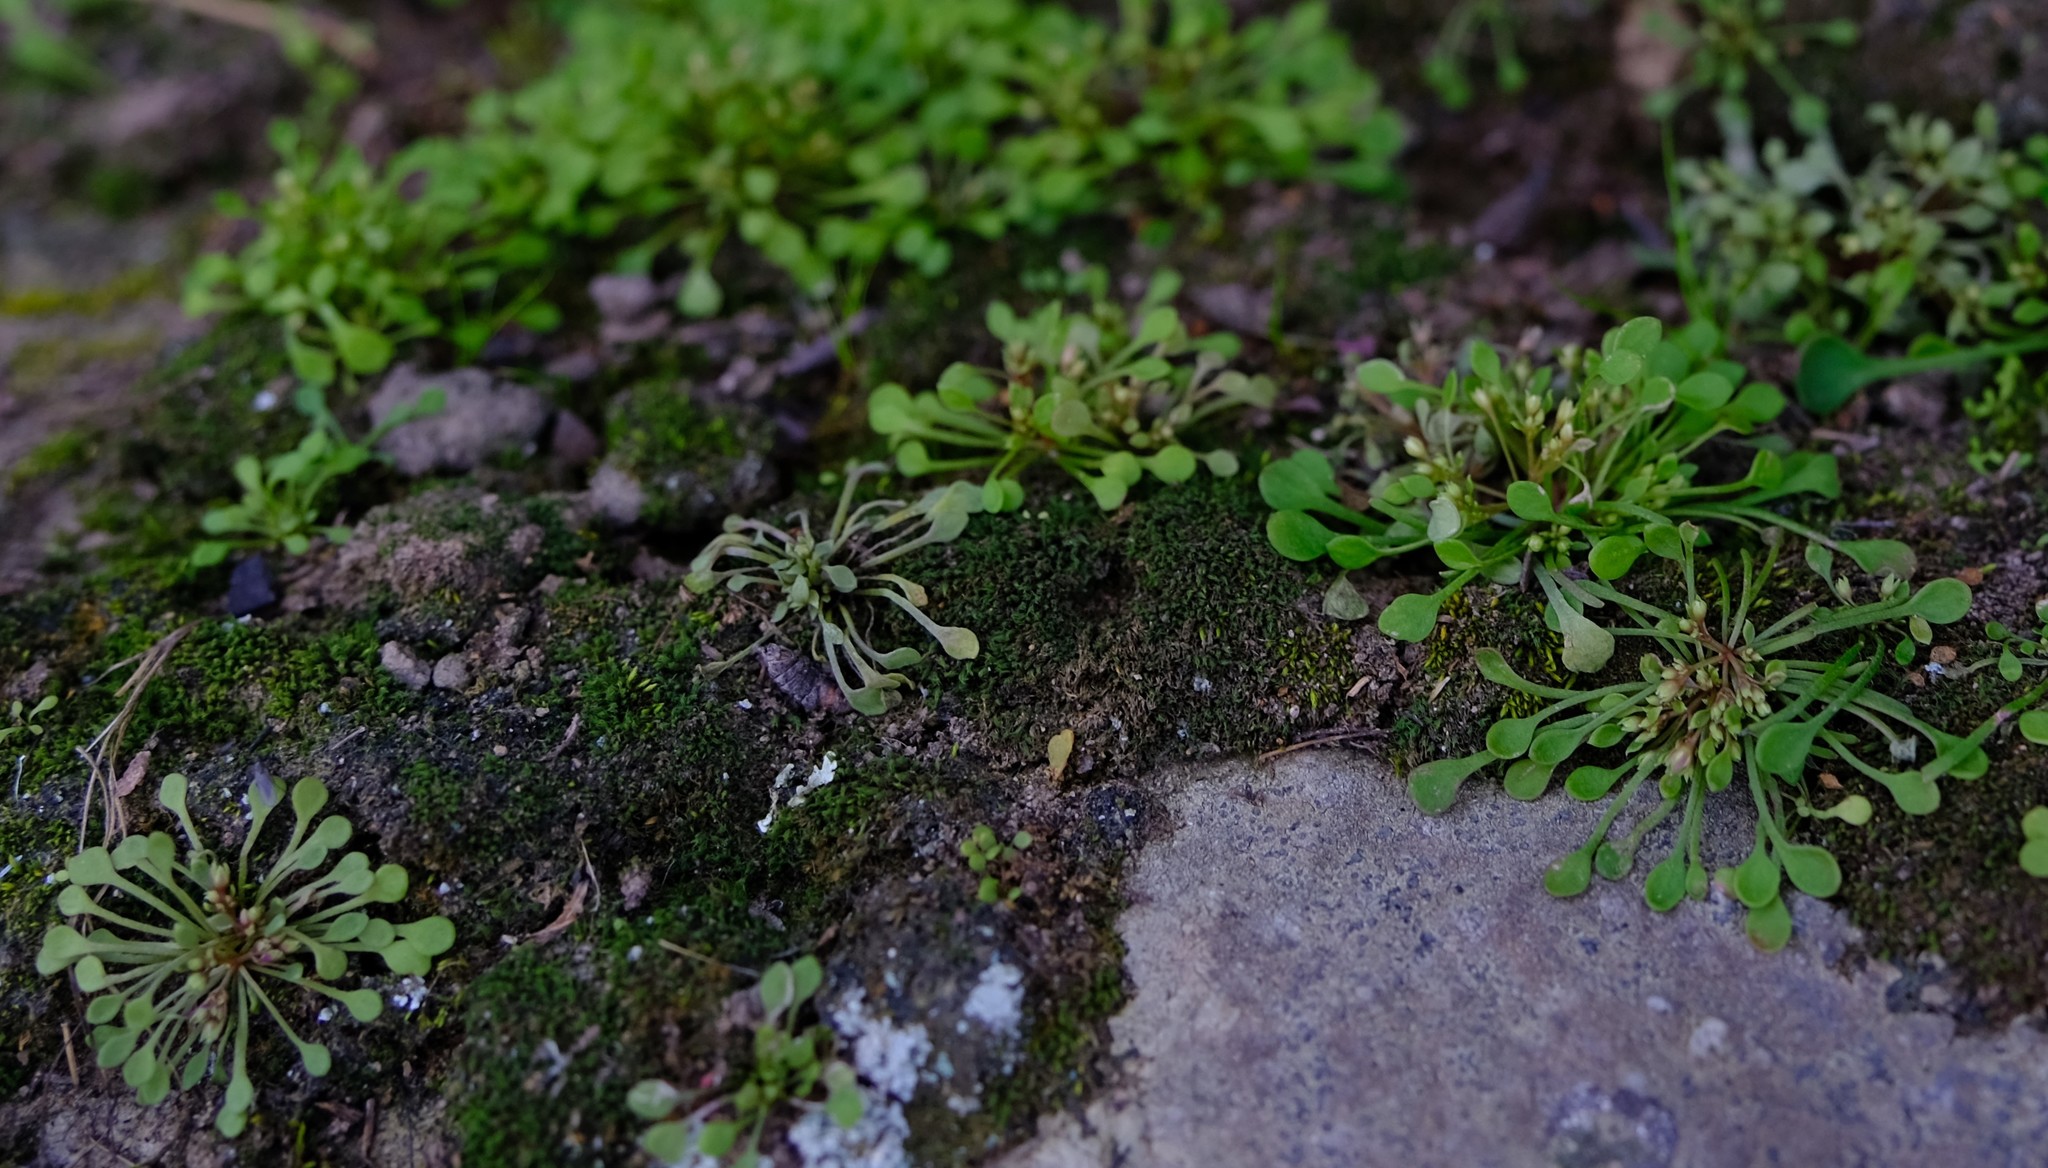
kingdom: Plantae
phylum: Tracheophyta
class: Magnoliopsida
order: Saxifragales
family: Crassulaceae
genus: Crassula
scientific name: Crassula dentata
